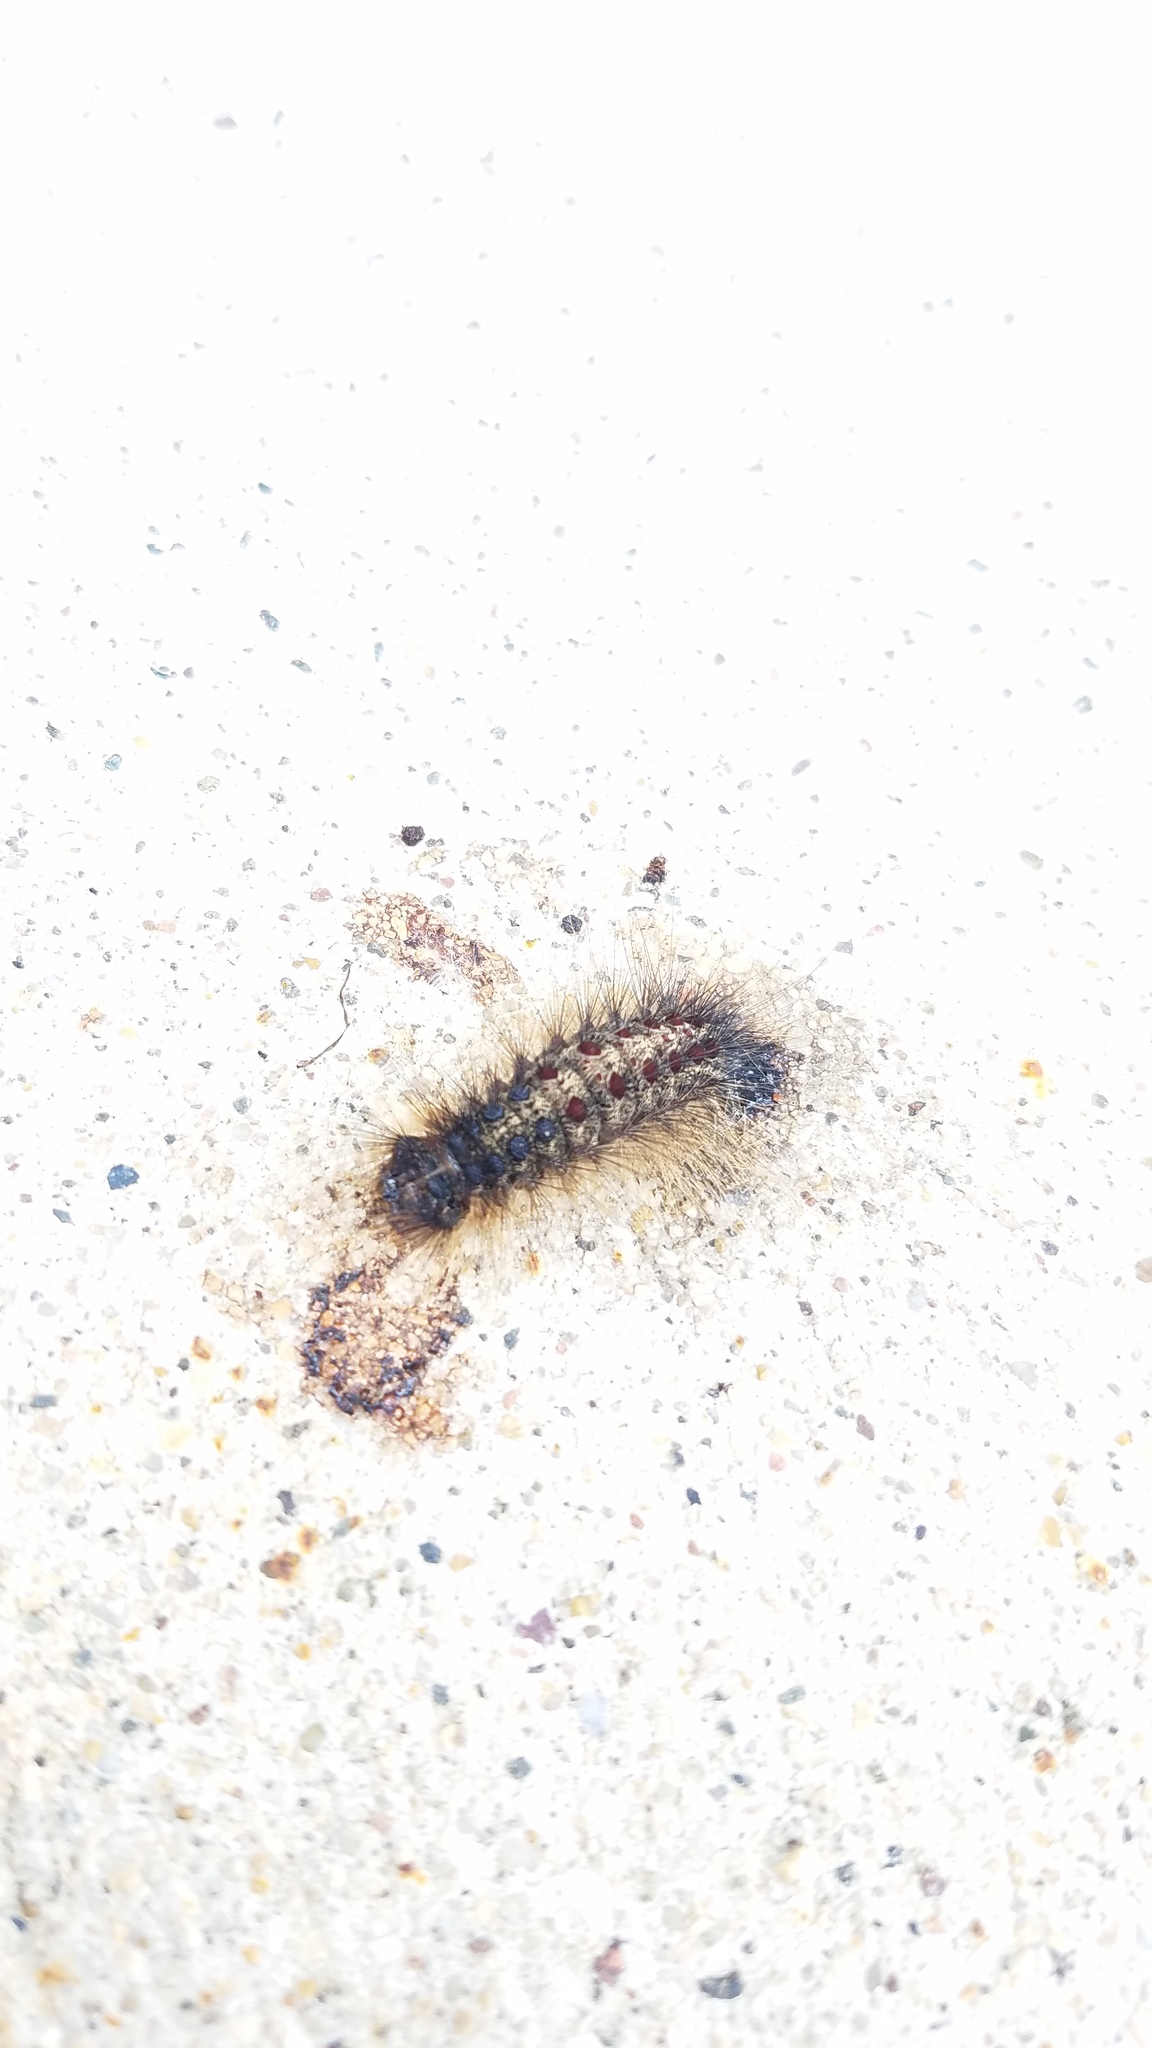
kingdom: Animalia
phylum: Arthropoda
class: Insecta
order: Lepidoptera
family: Erebidae
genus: Lymantria
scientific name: Lymantria dispar
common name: Gypsy moth
